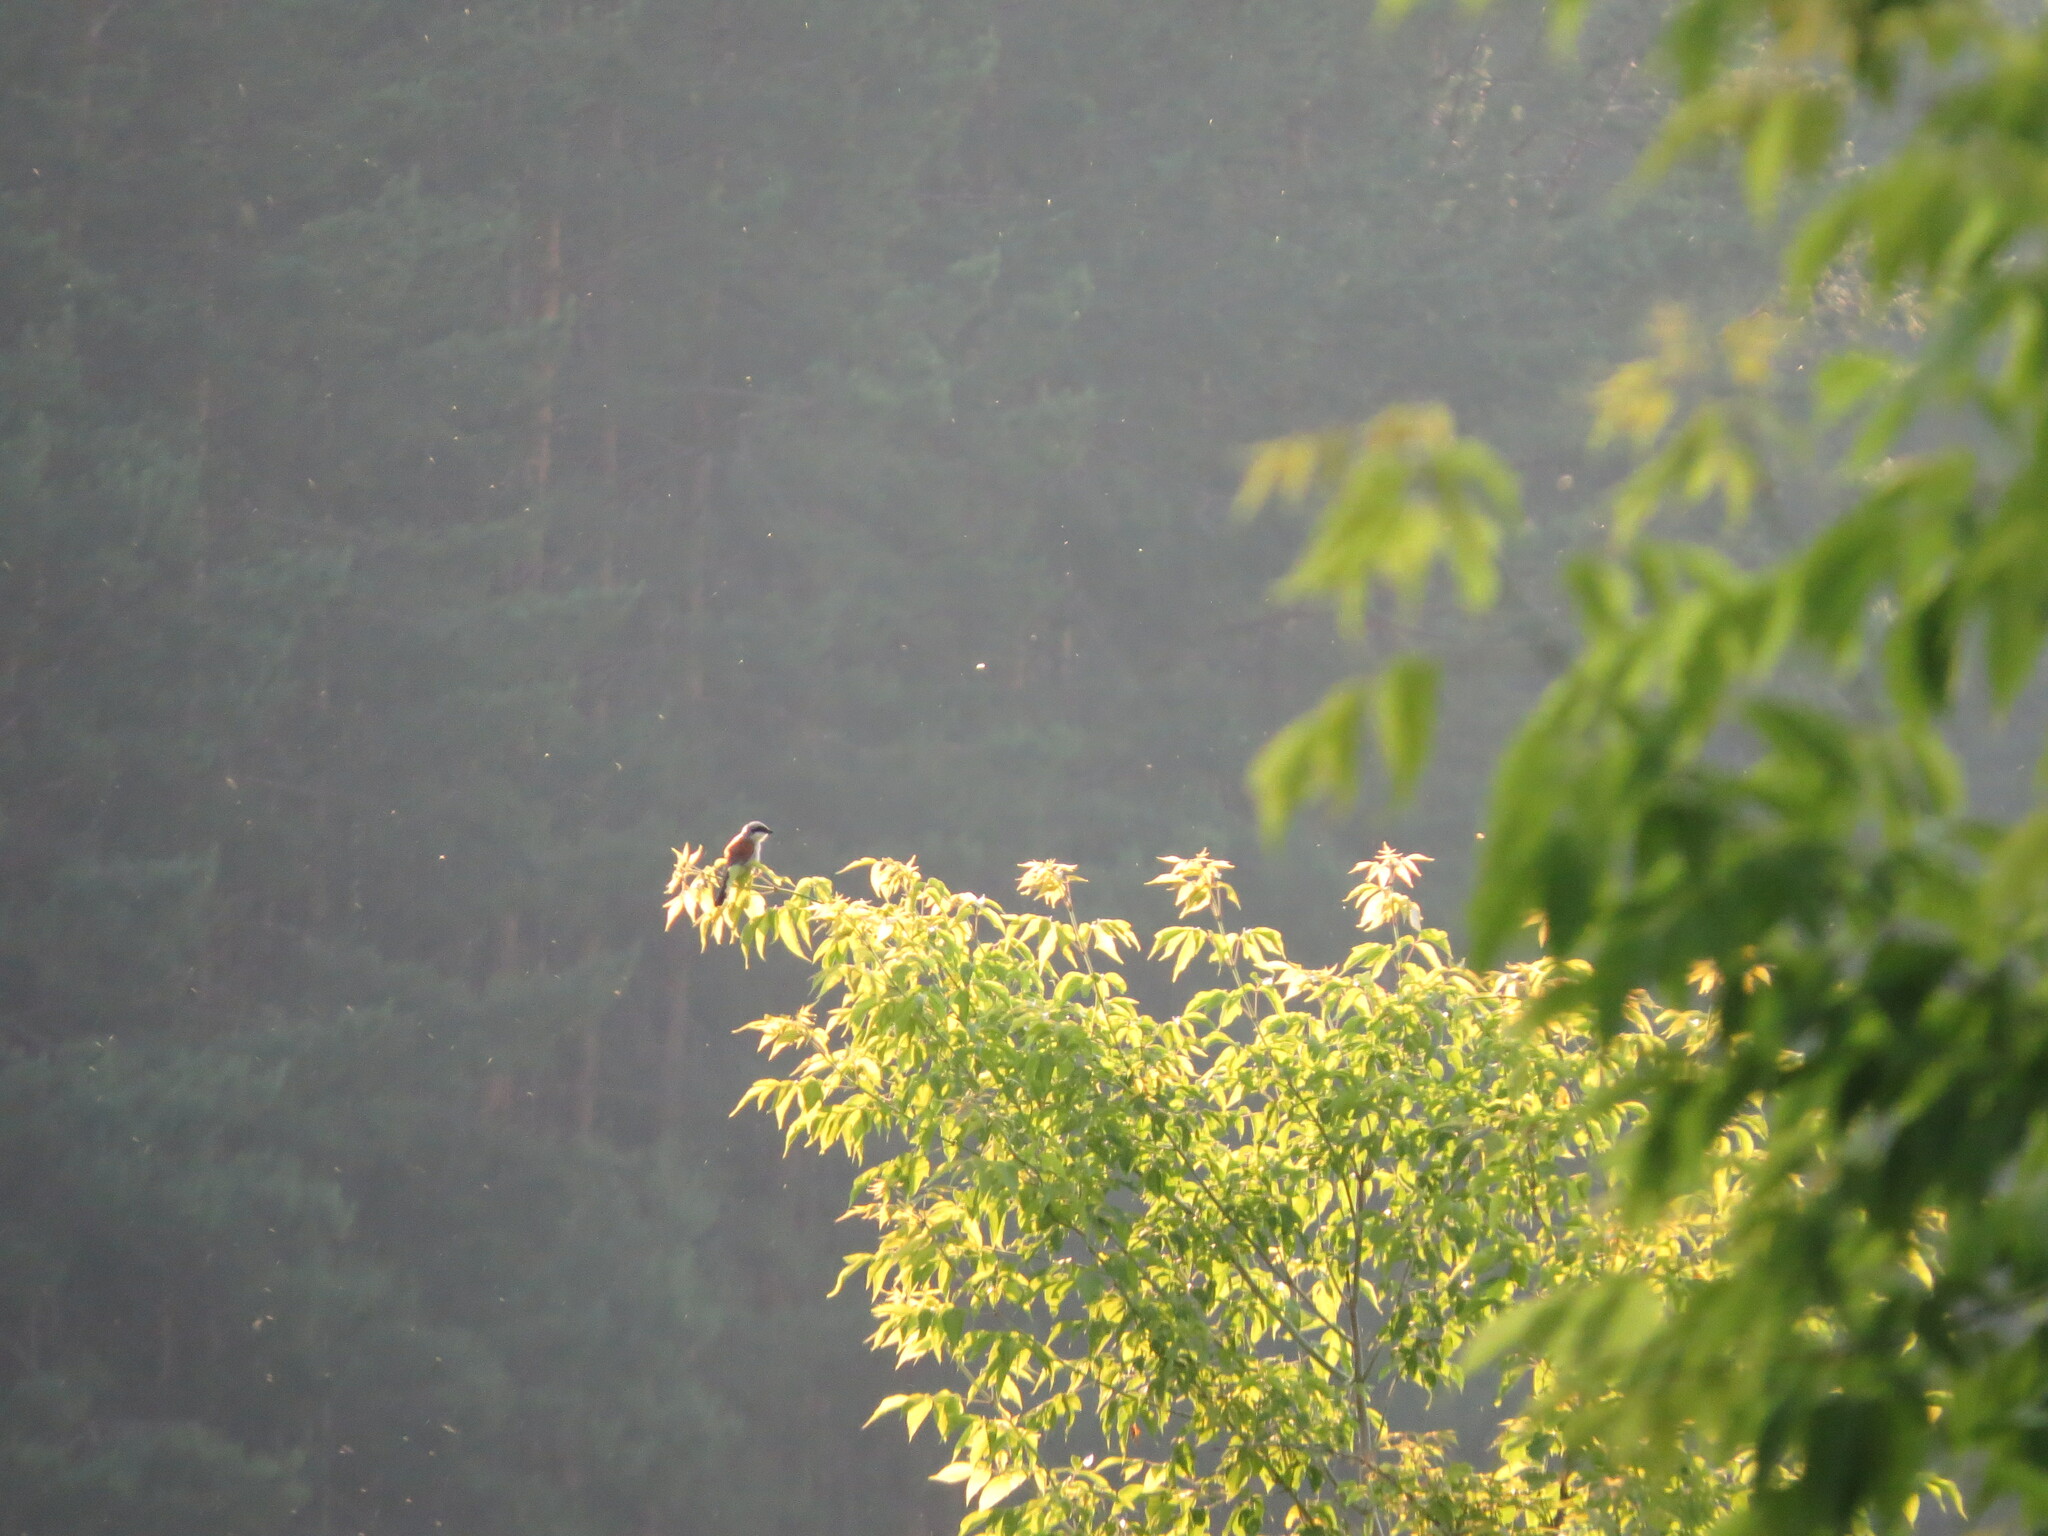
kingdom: Animalia
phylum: Chordata
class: Aves
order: Passeriformes
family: Laniidae
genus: Lanius
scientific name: Lanius collurio
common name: Red-backed shrike
